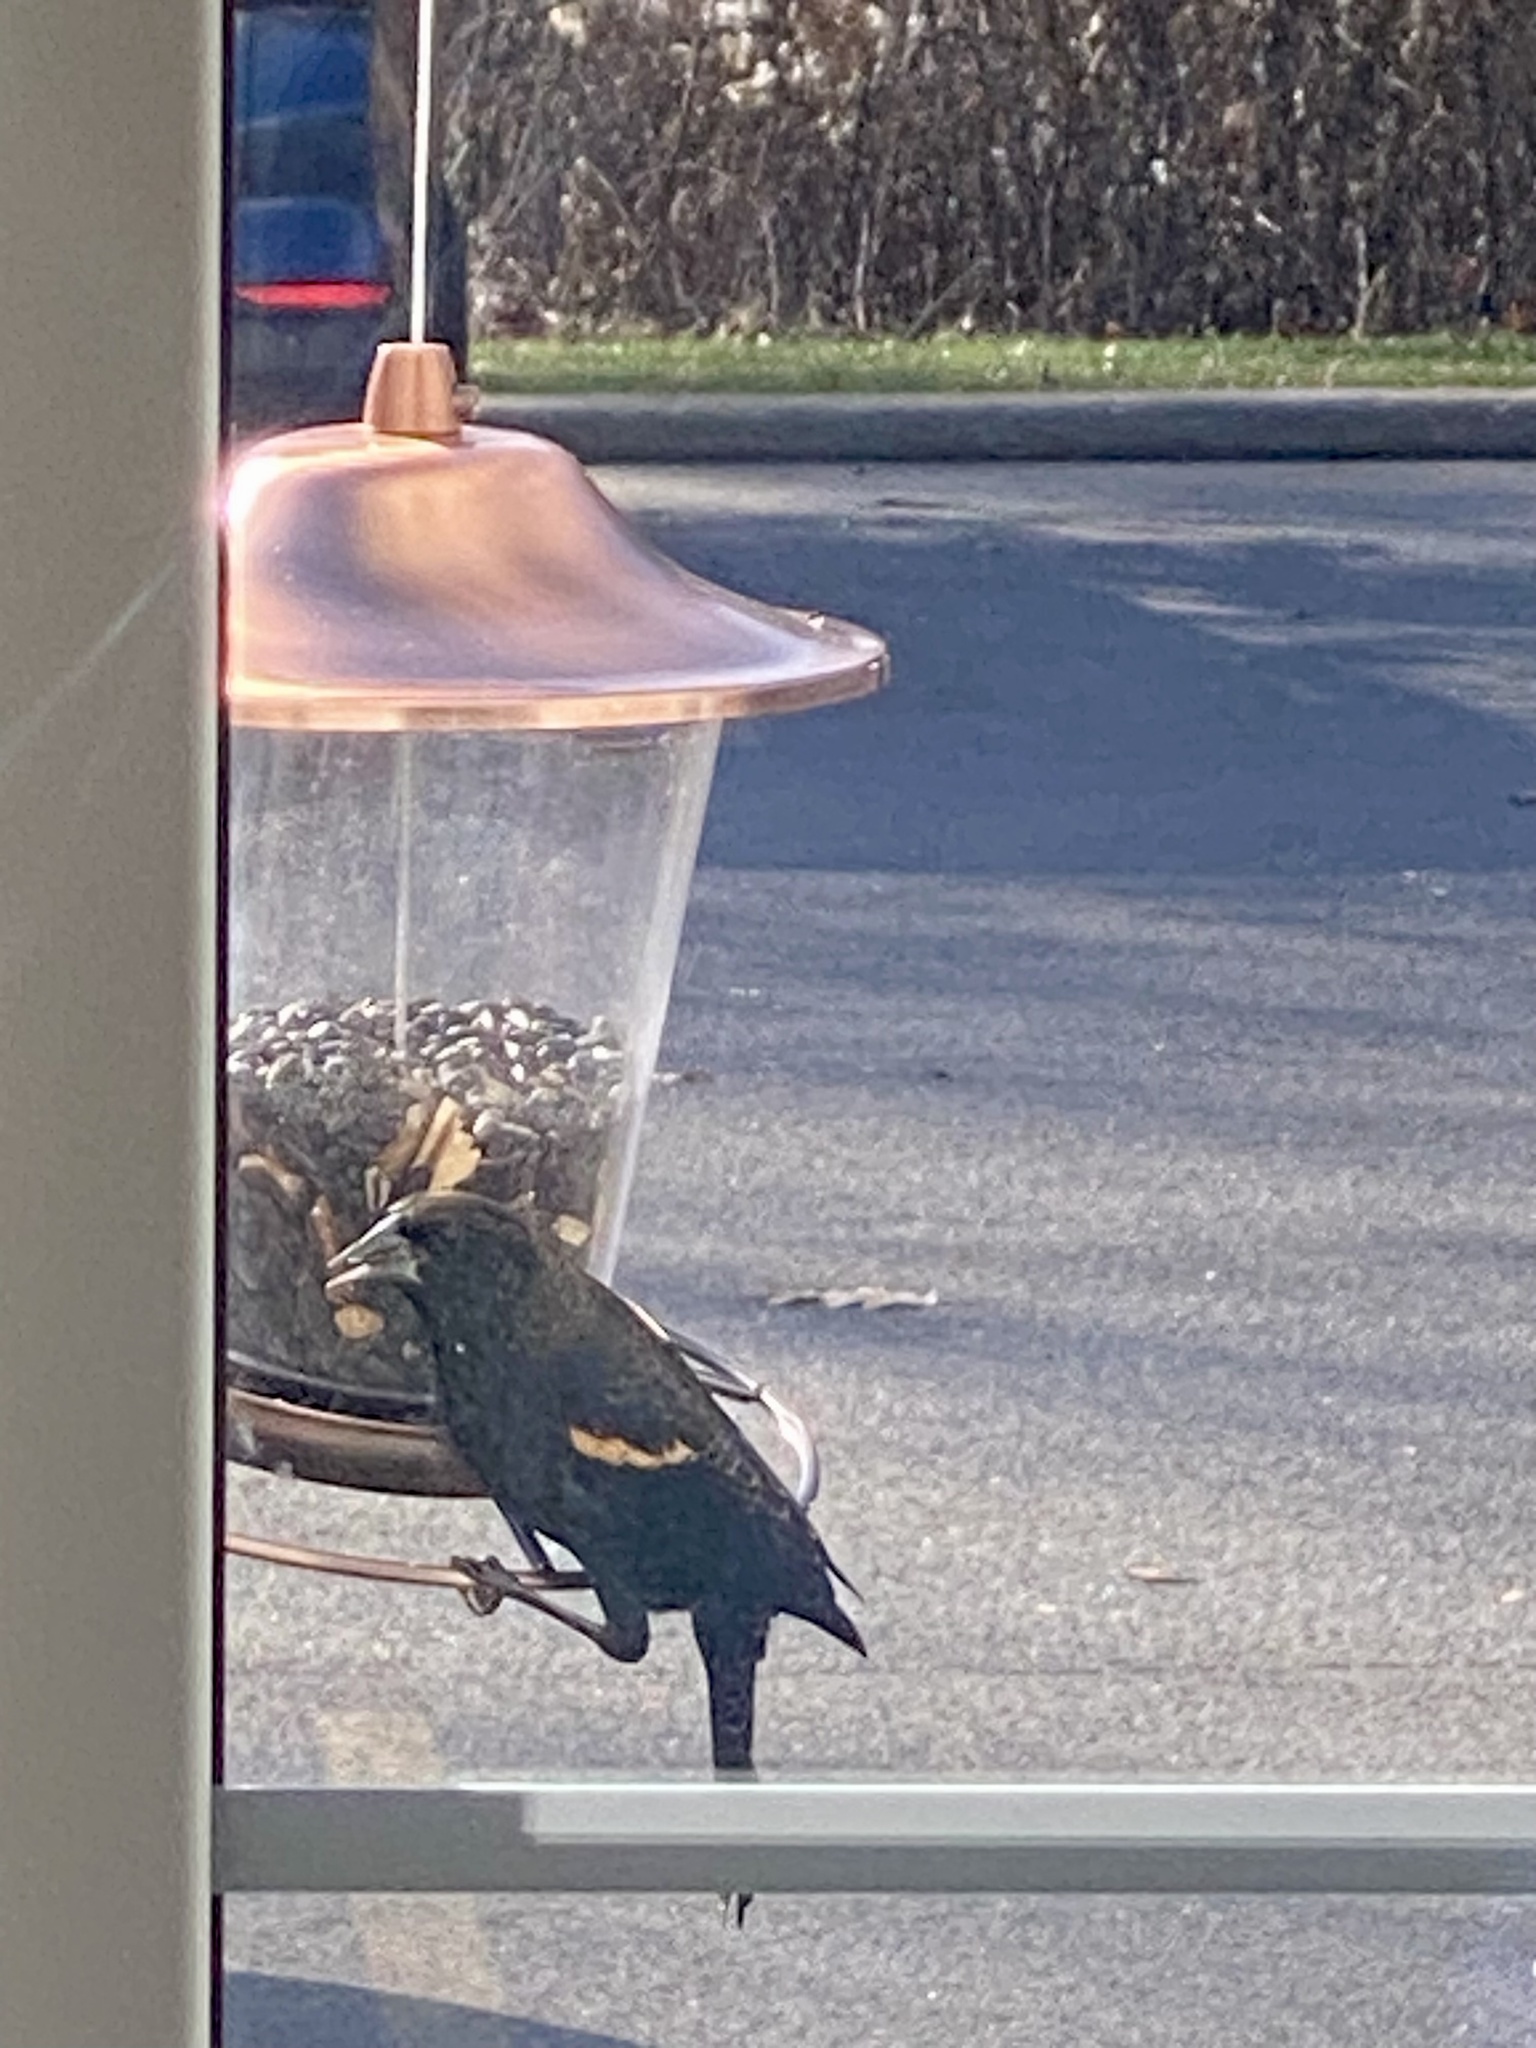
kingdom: Animalia
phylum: Chordata
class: Aves
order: Passeriformes
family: Icteridae
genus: Agelaius
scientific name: Agelaius phoeniceus
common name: Red-winged blackbird
